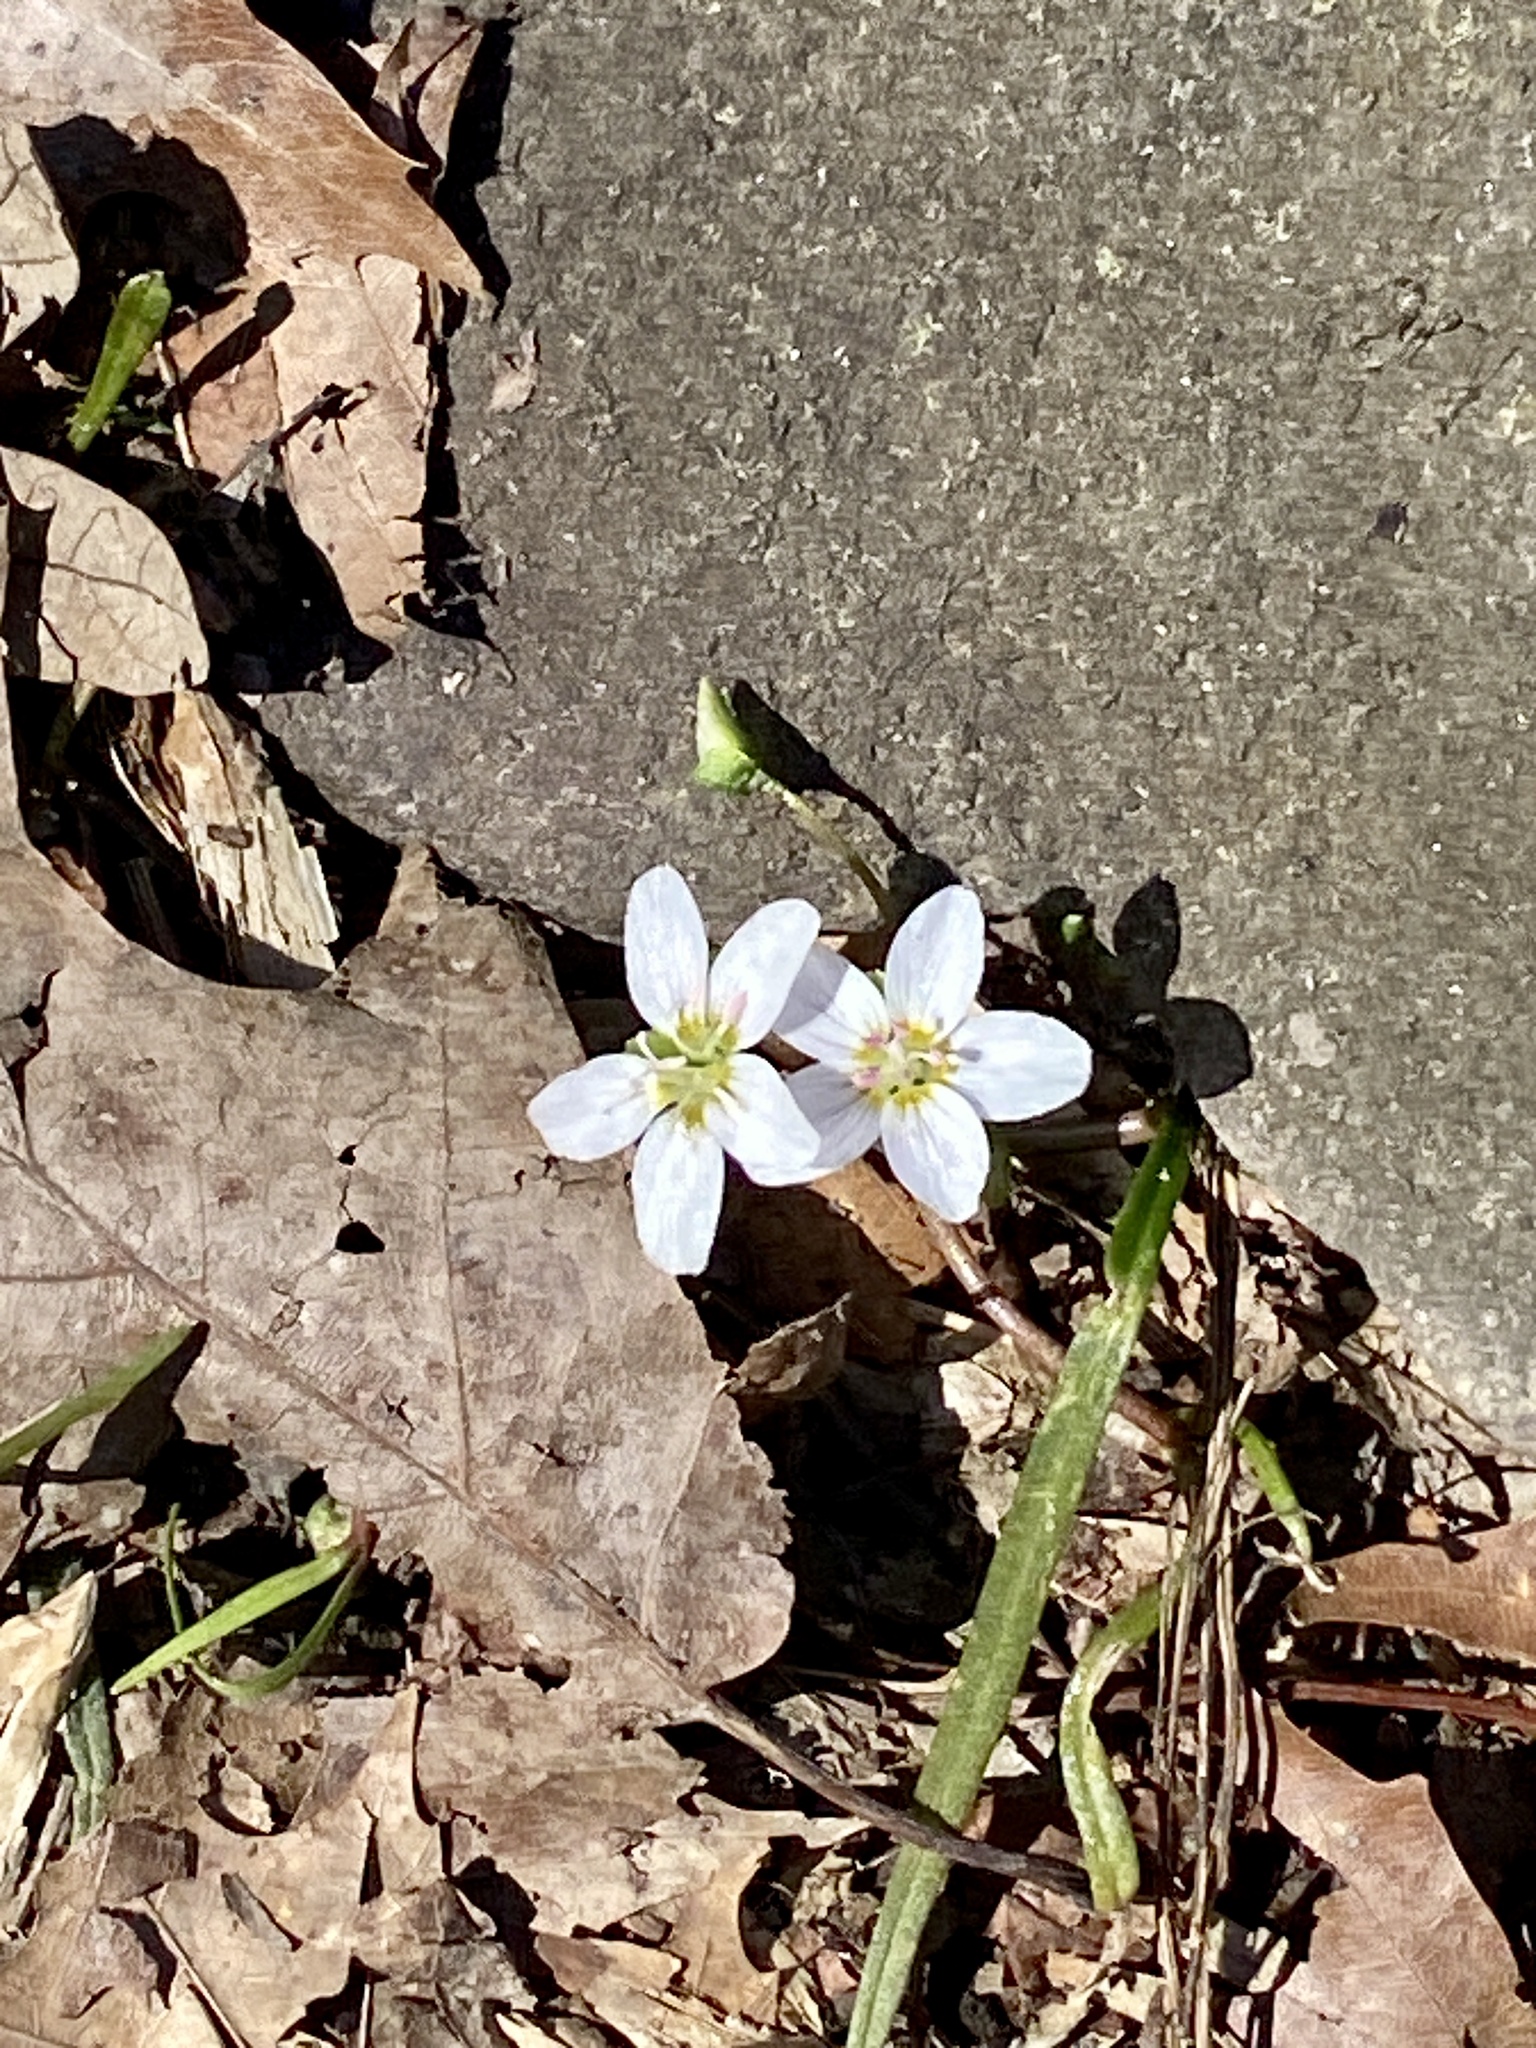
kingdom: Plantae
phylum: Tracheophyta
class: Magnoliopsida
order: Caryophyllales
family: Montiaceae
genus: Claytonia
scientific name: Claytonia virginica
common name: Virginia springbeauty
